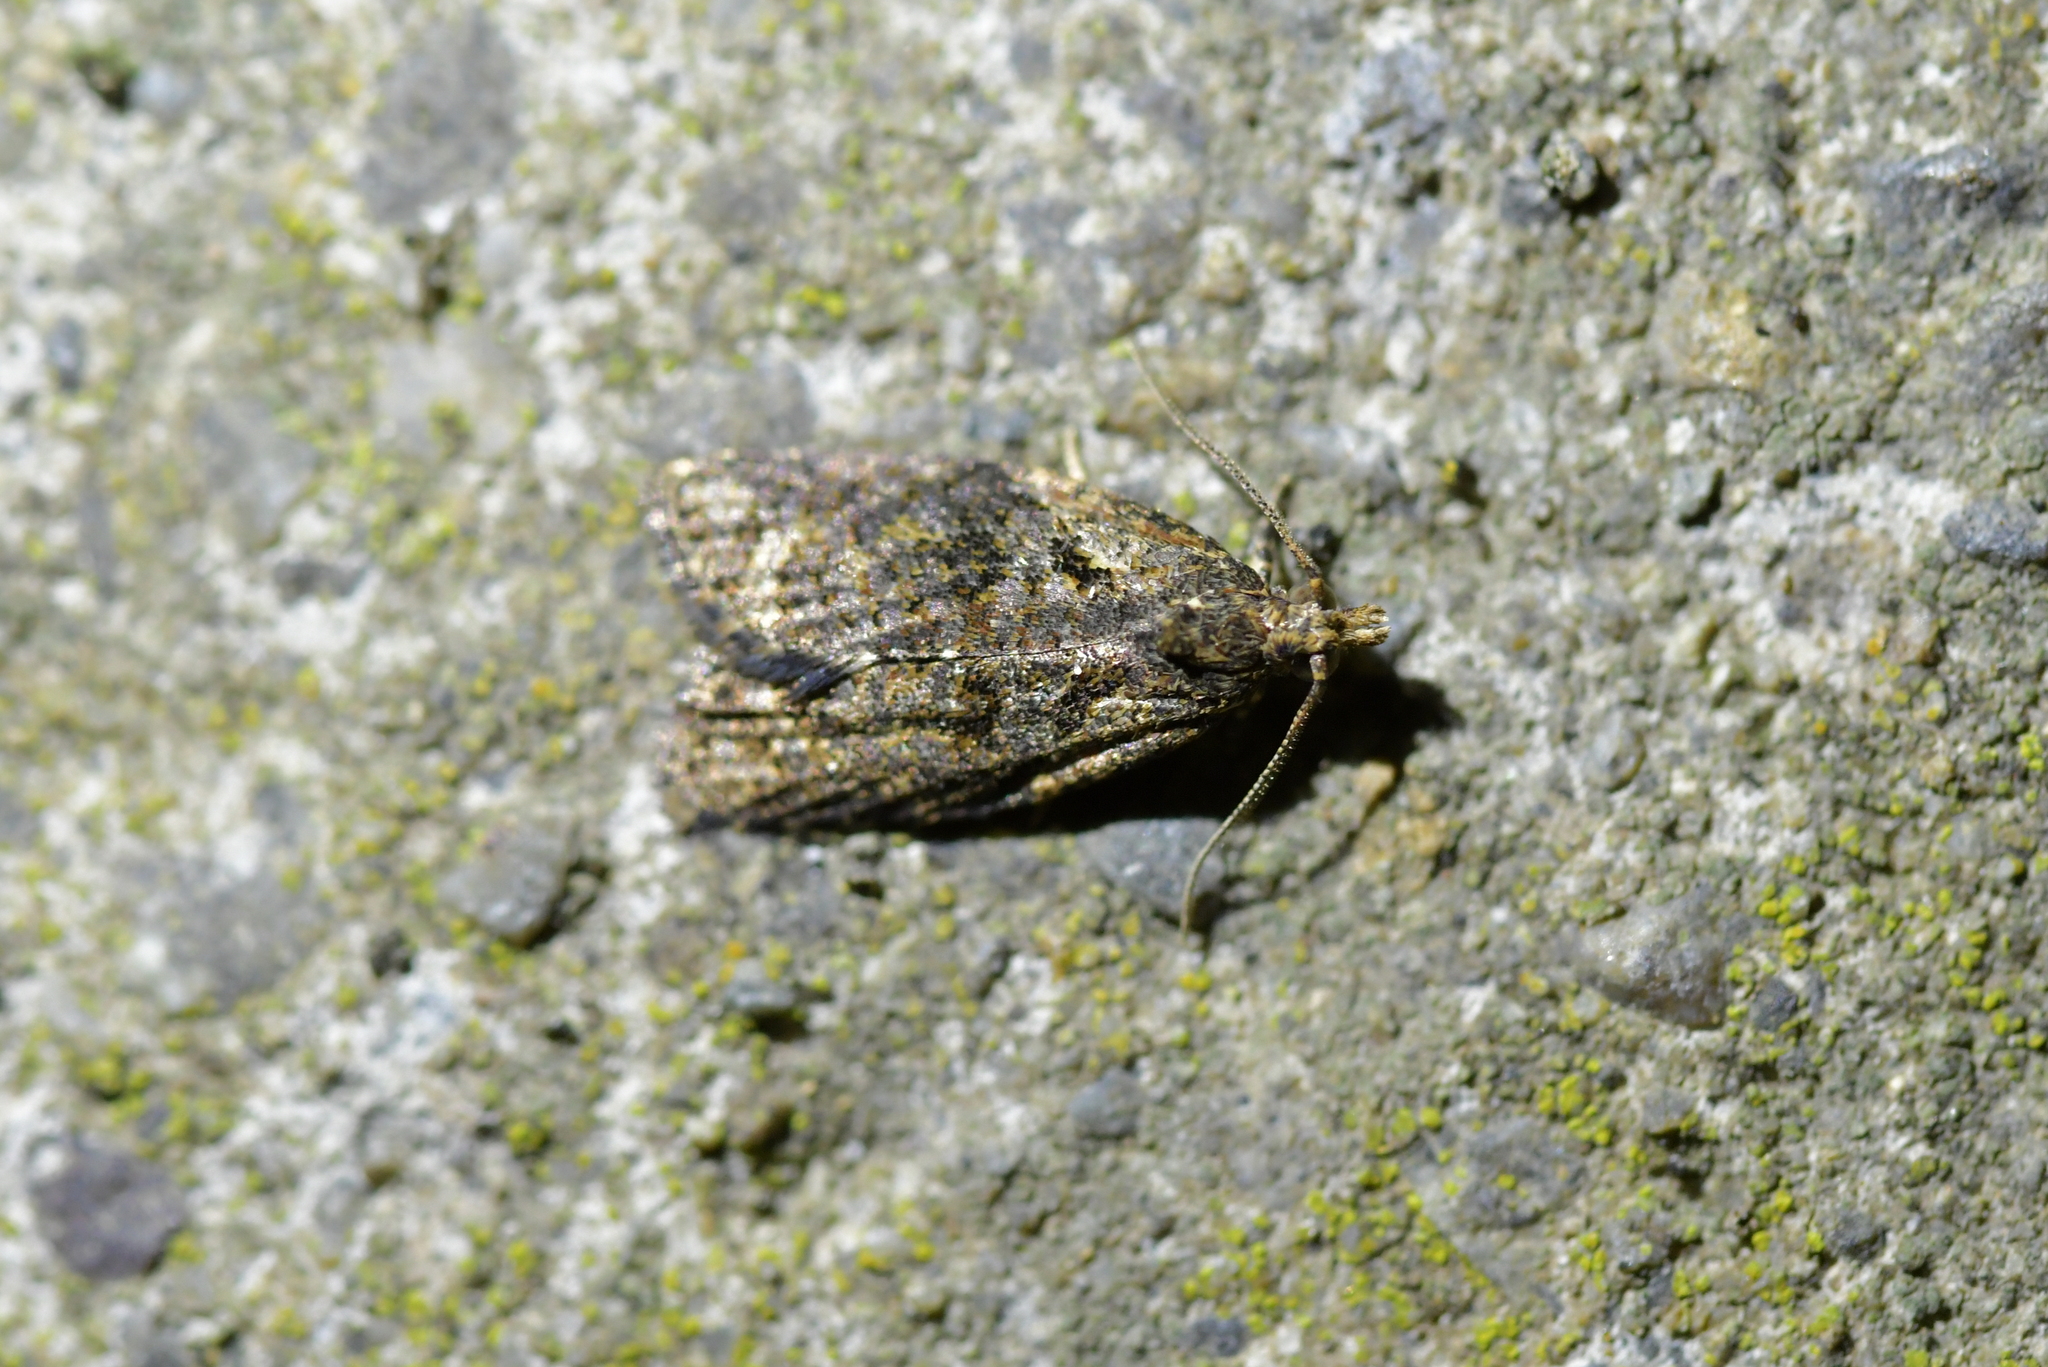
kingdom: Animalia
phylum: Arthropoda
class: Insecta
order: Lepidoptera
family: Tortricidae
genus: Capua
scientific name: Capua intractana
